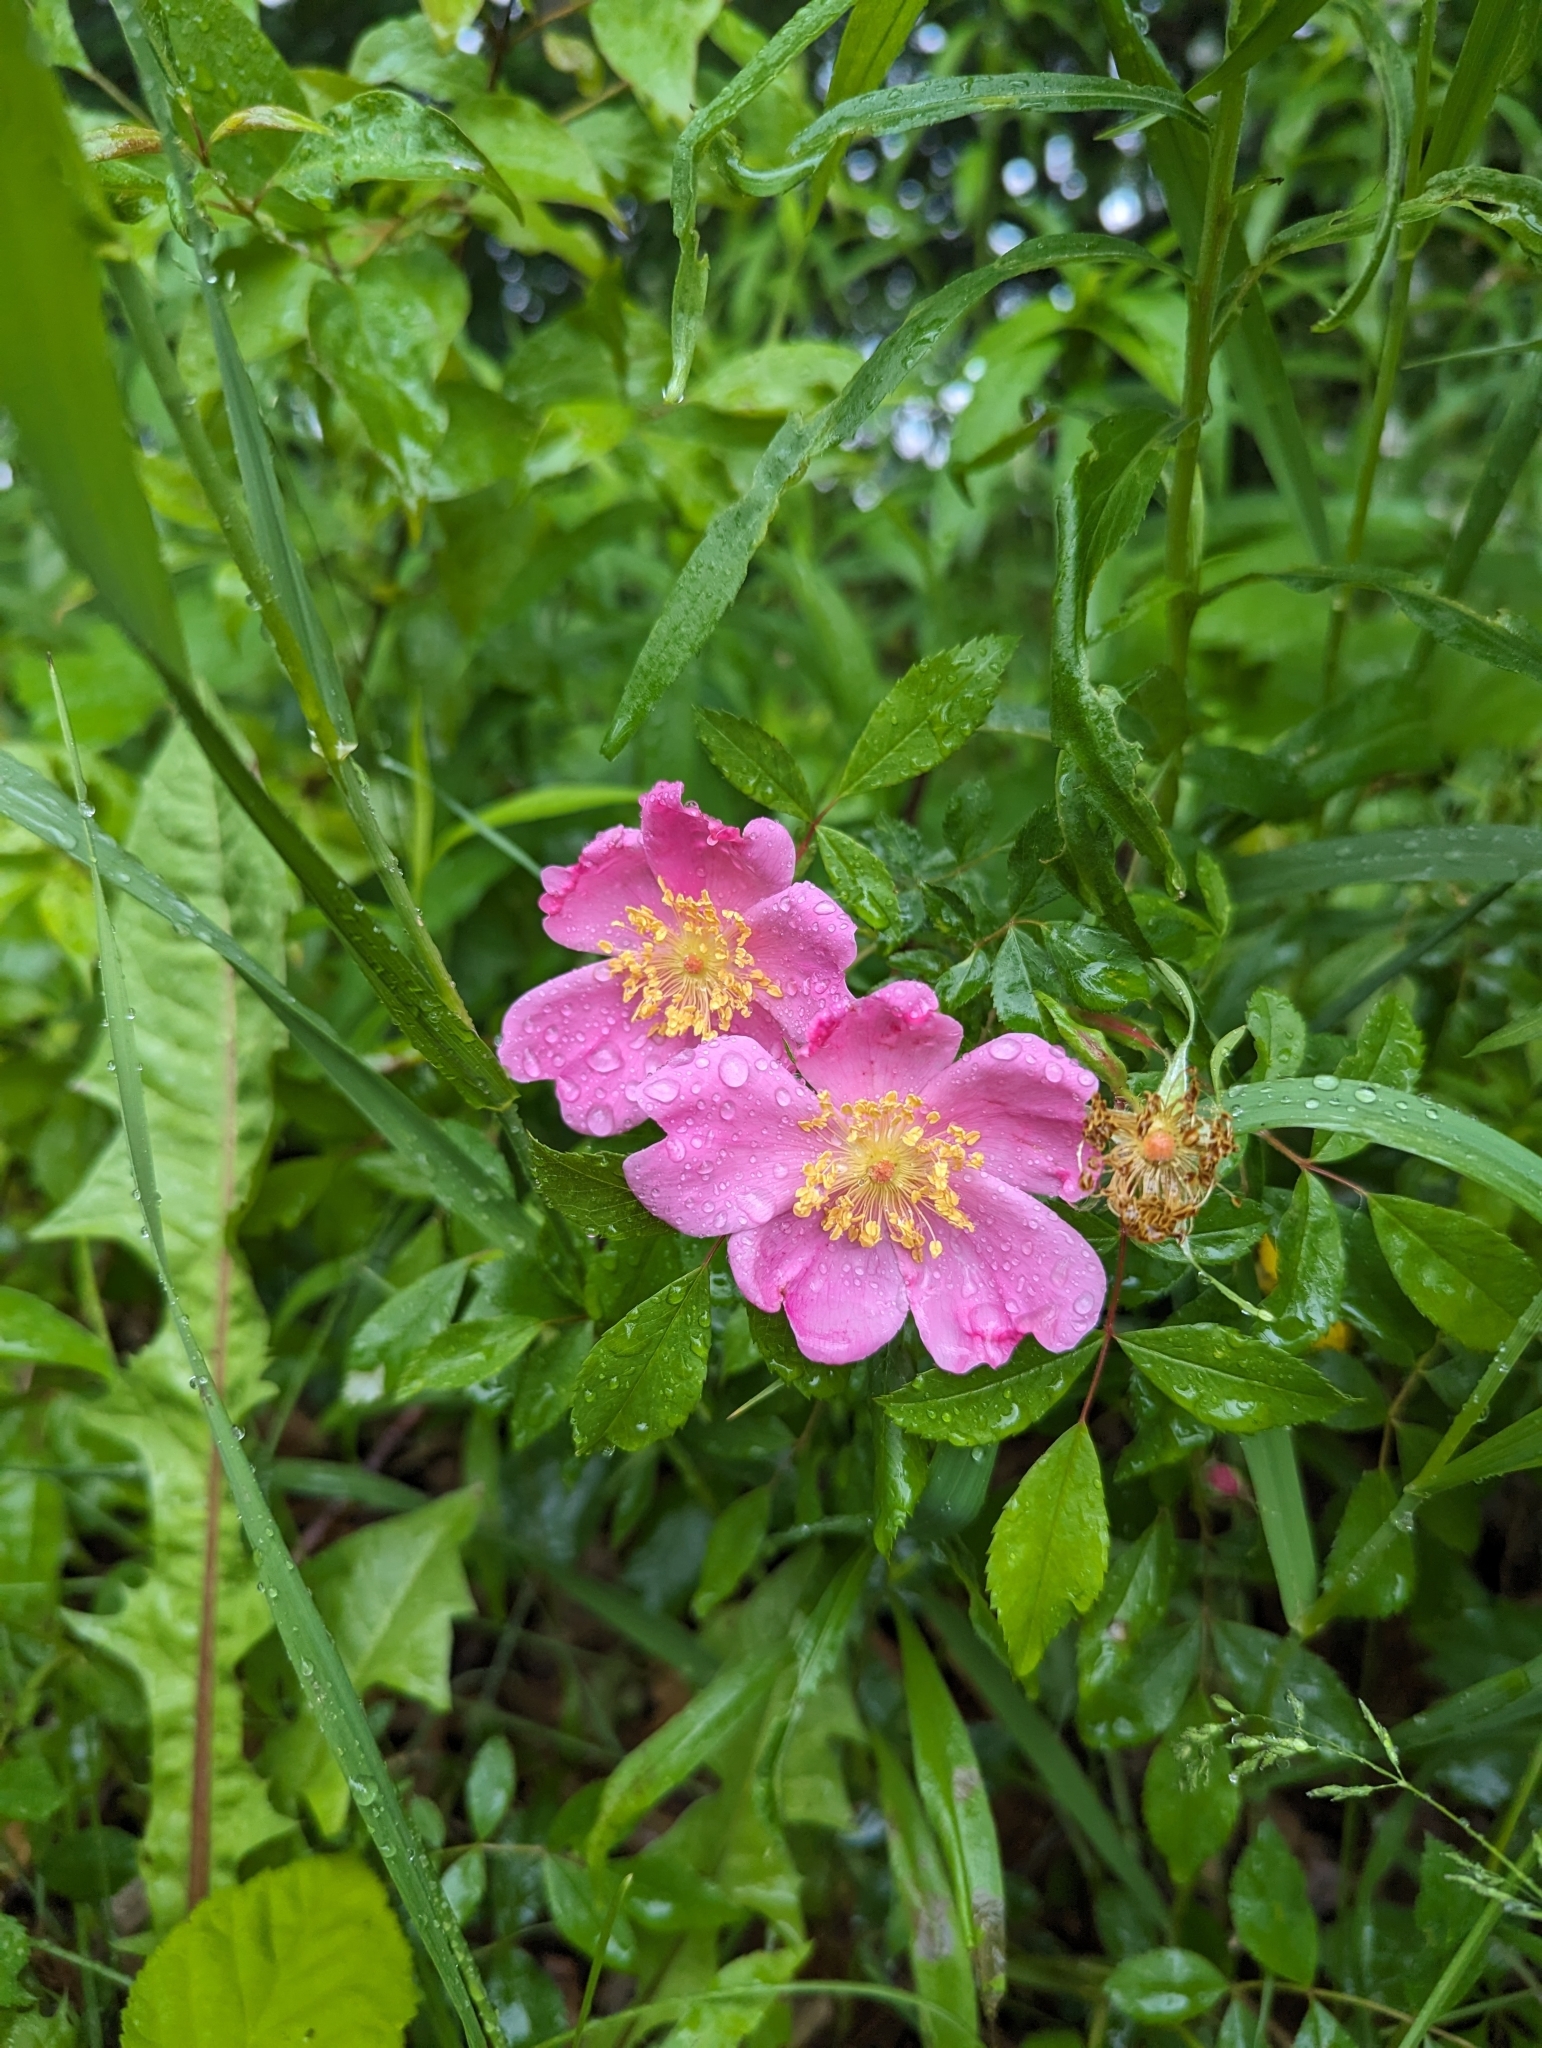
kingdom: Plantae
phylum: Tracheophyta
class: Magnoliopsida
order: Rosales
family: Rosaceae
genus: Rosa
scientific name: Rosa carolina
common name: Pasture rose
